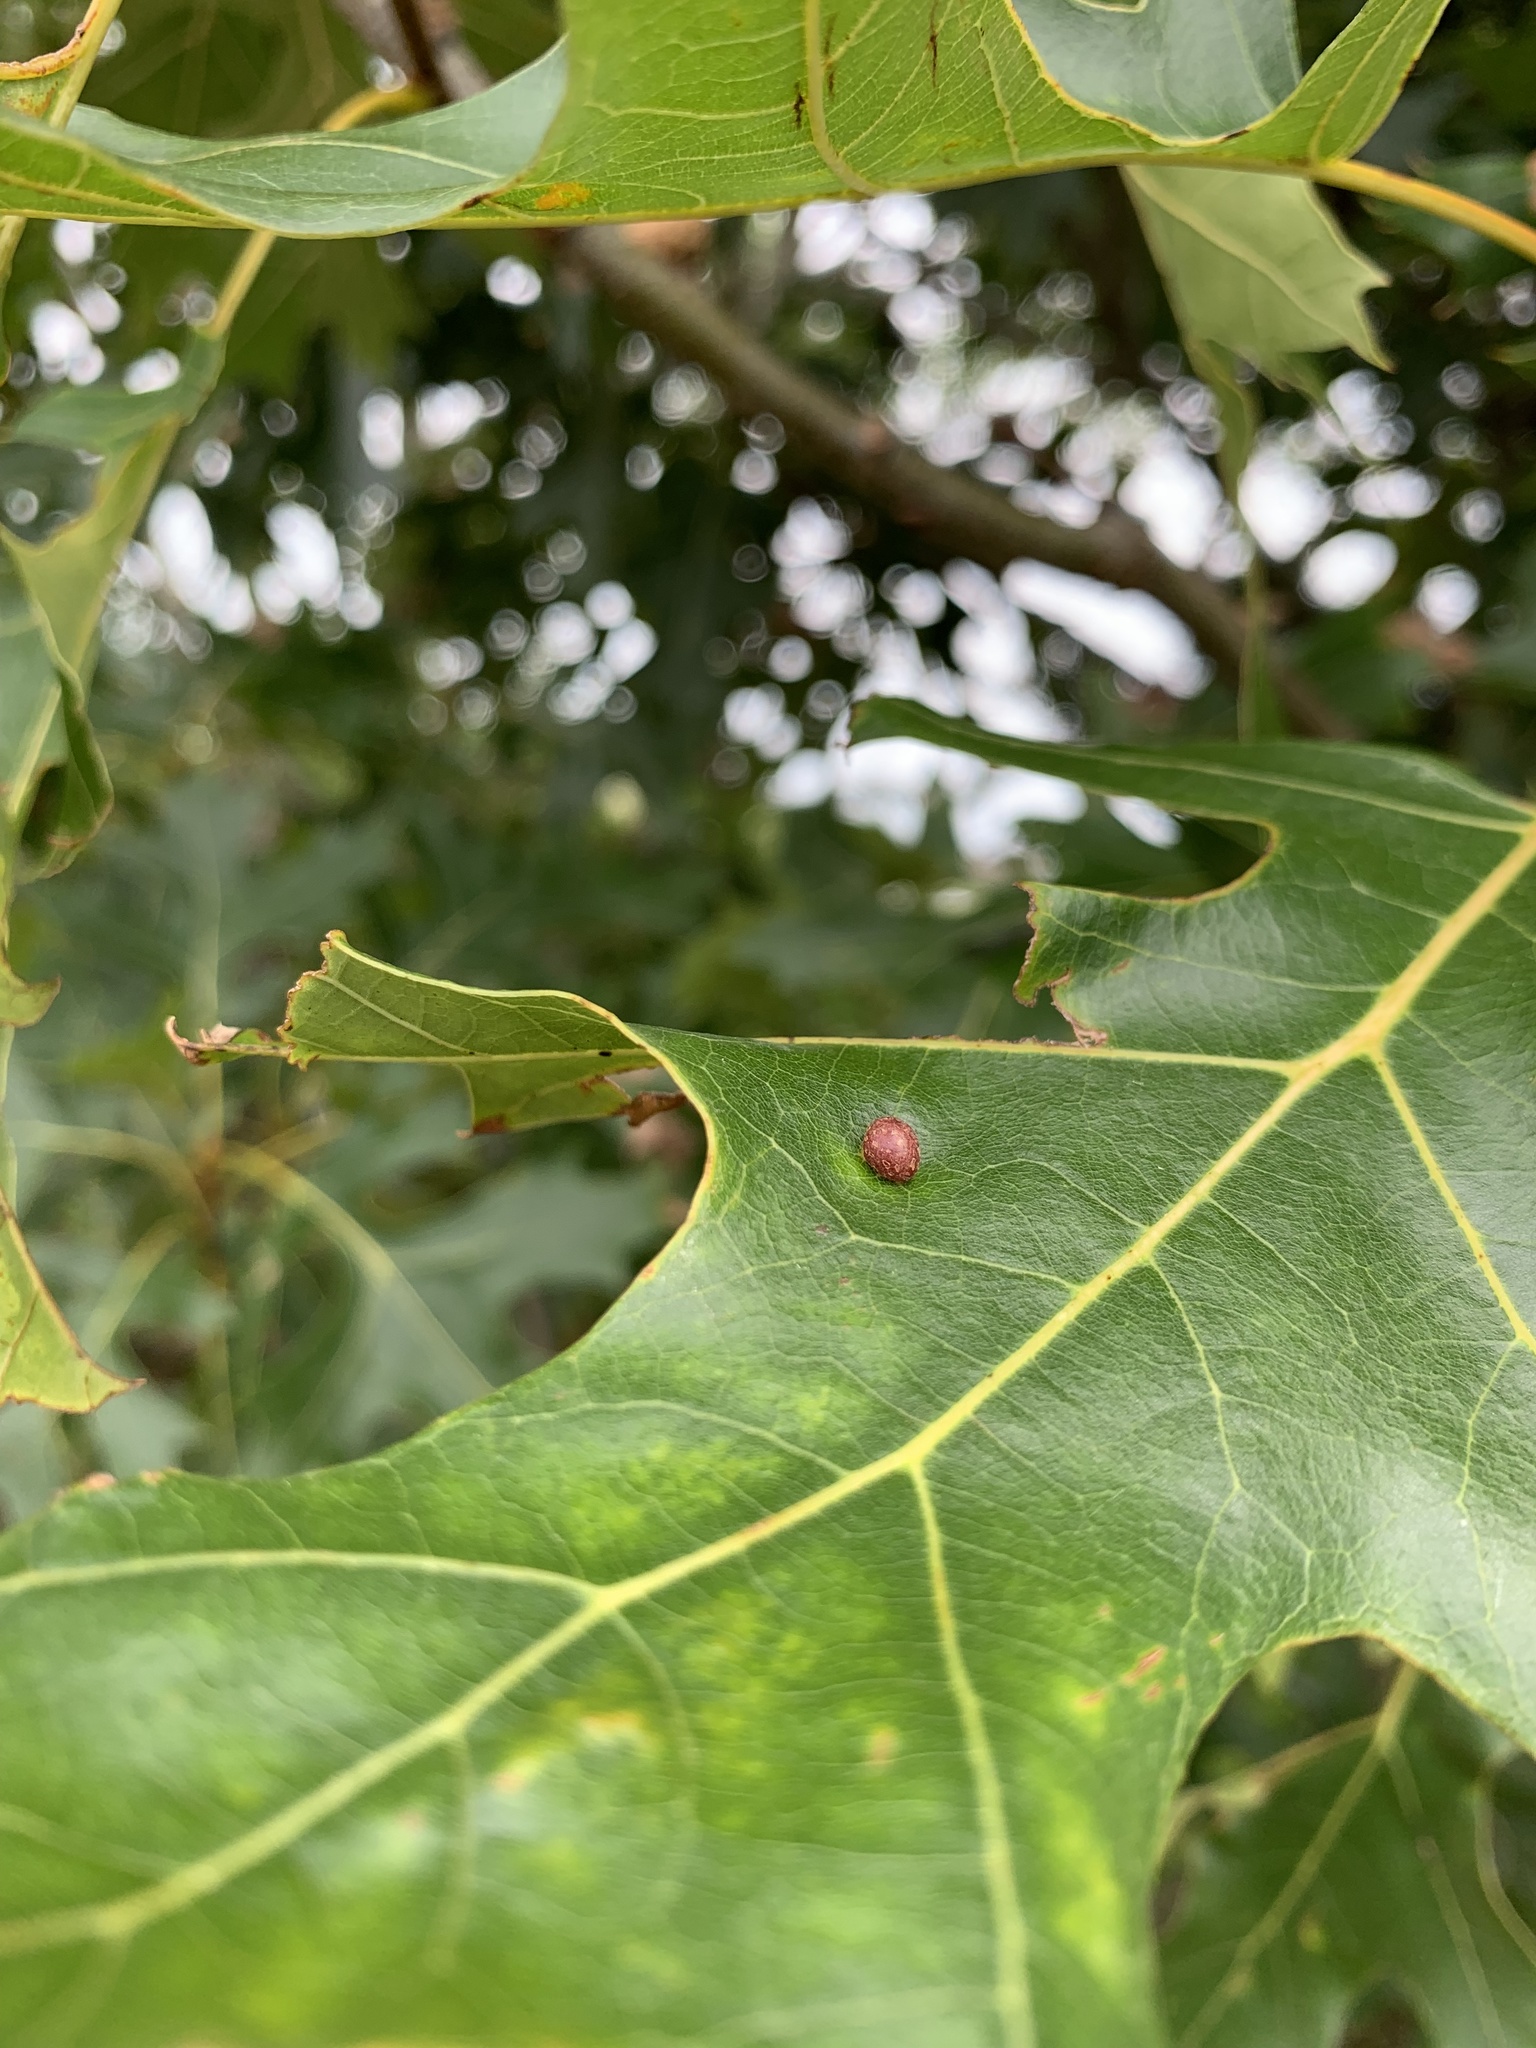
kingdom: Animalia
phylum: Arthropoda
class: Insecta
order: Diptera
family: Cecidomyiidae
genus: Polystepha
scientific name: Polystepha pilulae
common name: Oak leaf gall midge
